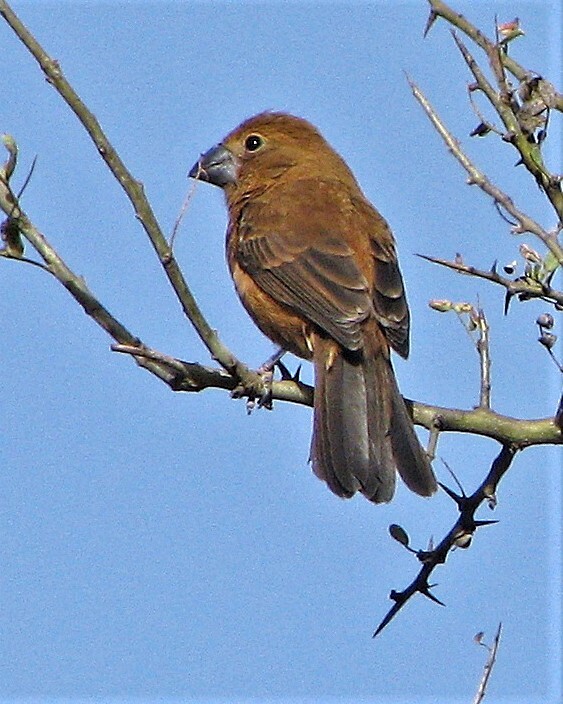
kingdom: Animalia
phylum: Chordata
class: Aves
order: Passeriformes
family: Cardinalidae
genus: Cyanoloxia
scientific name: Cyanoloxia brissonii
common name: Ultramarine grosbeak
